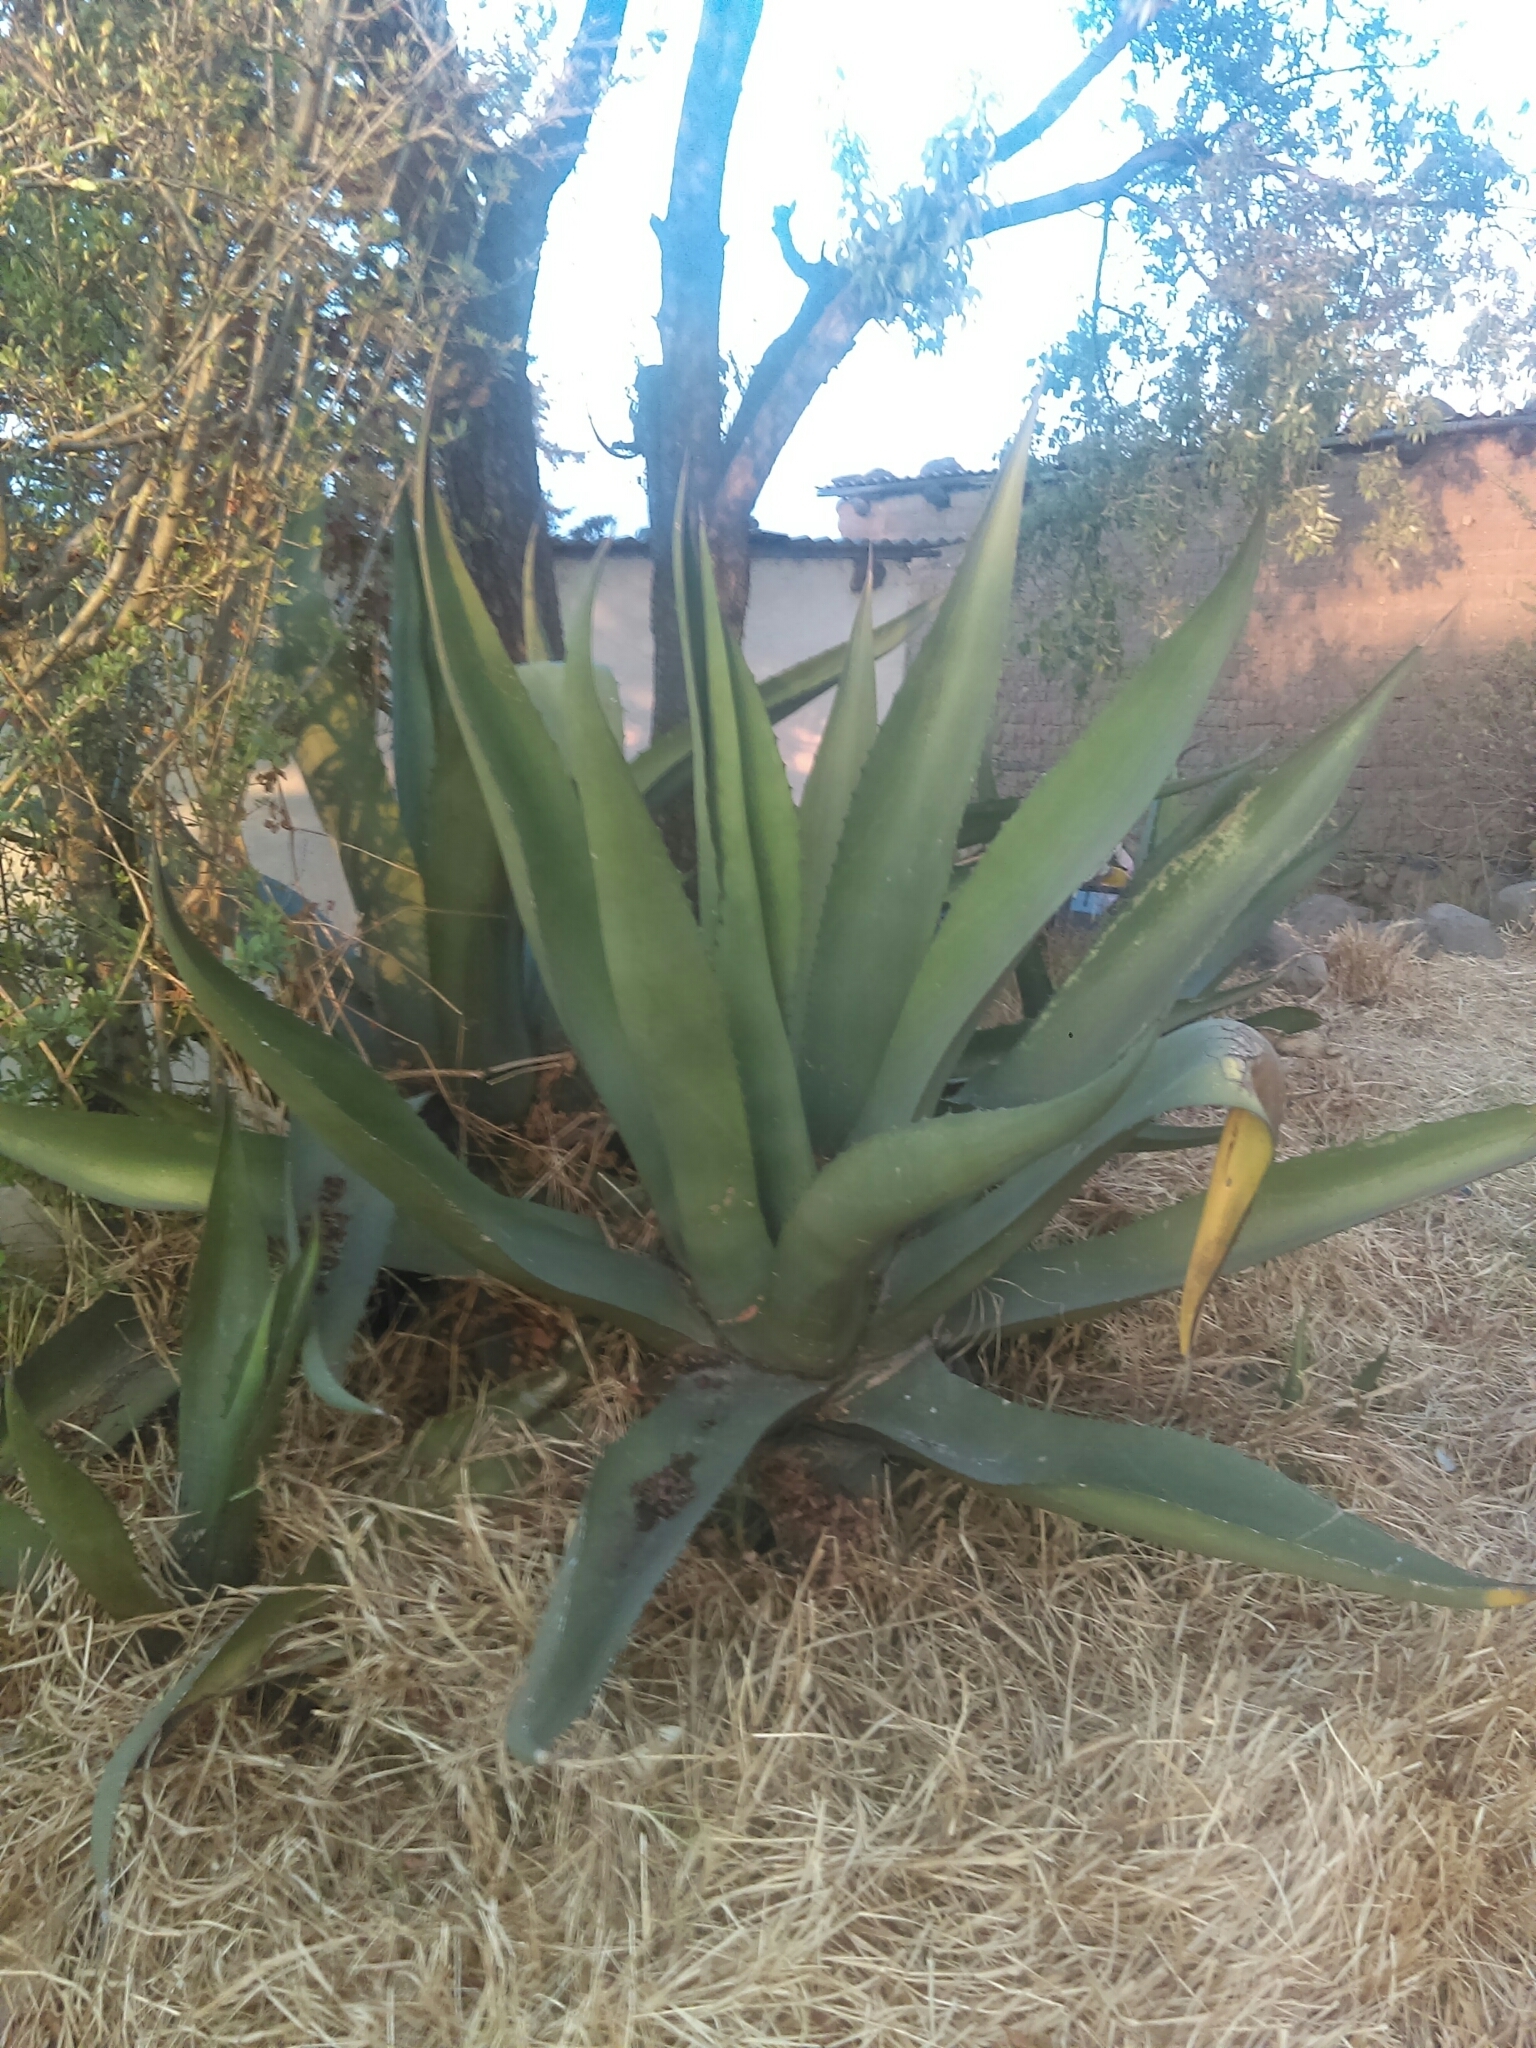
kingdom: Plantae
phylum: Tracheophyta
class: Liliopsida
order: Asparagales
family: Asparagaceae
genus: Agave
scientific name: Agave salmiana
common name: Pulque agave
